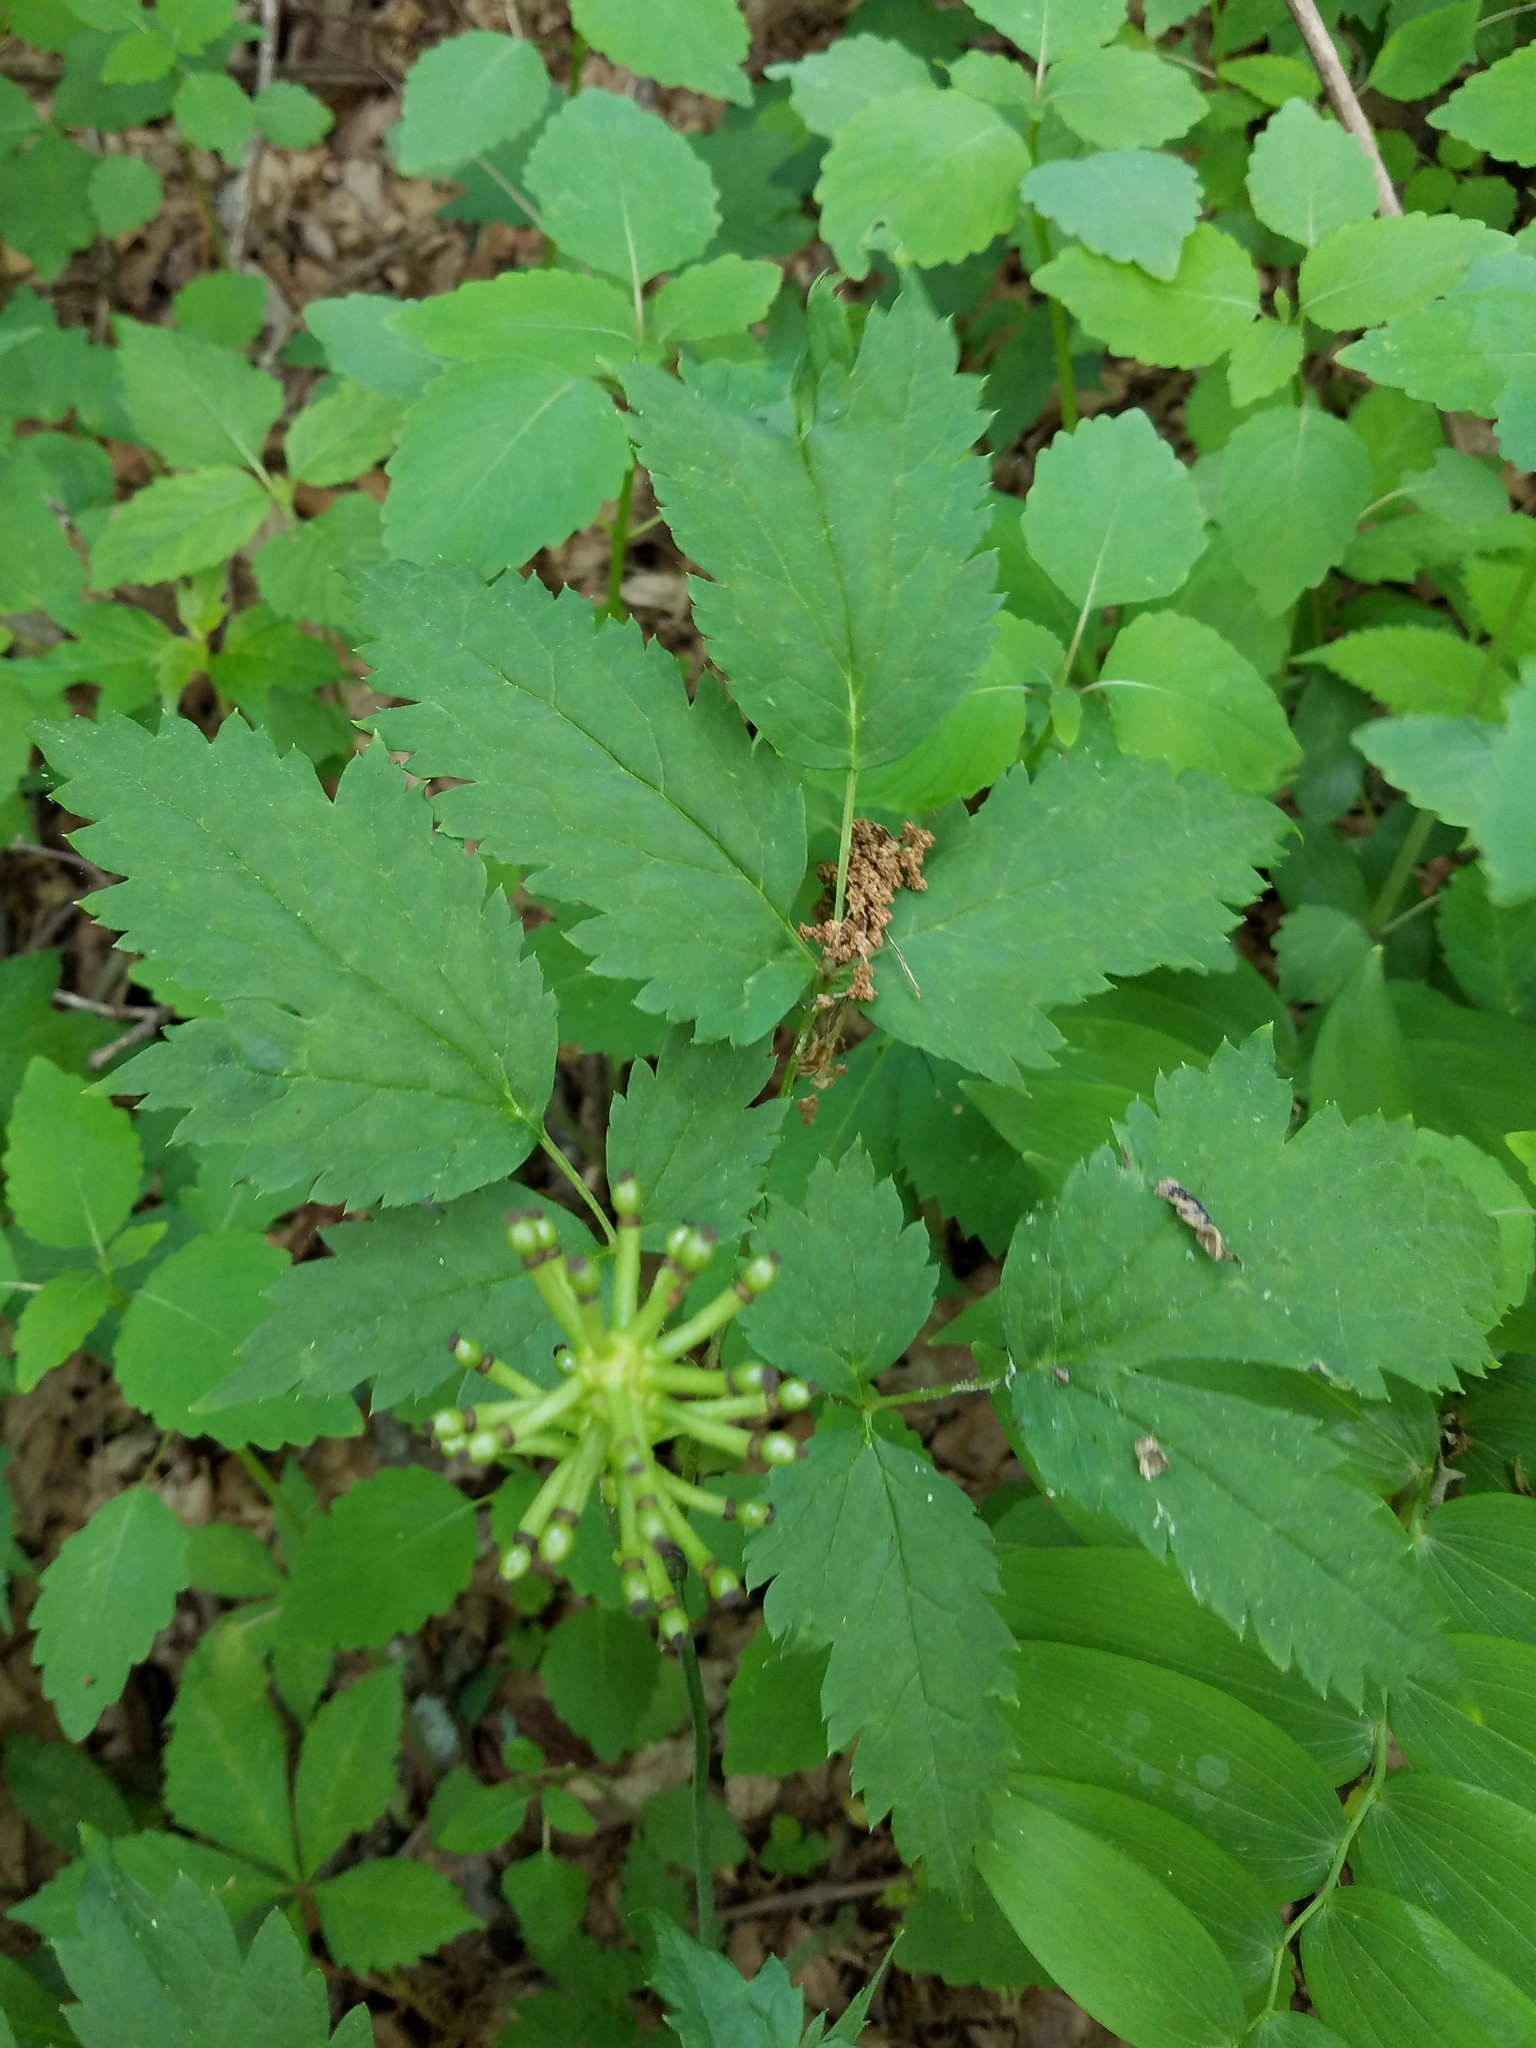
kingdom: Plantae
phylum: Tracheophyta
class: Magnoliopsida
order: Ranunculales
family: Ranunculaceae
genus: Actaea
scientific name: Actaea pachypoda
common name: Doll's-eyes
